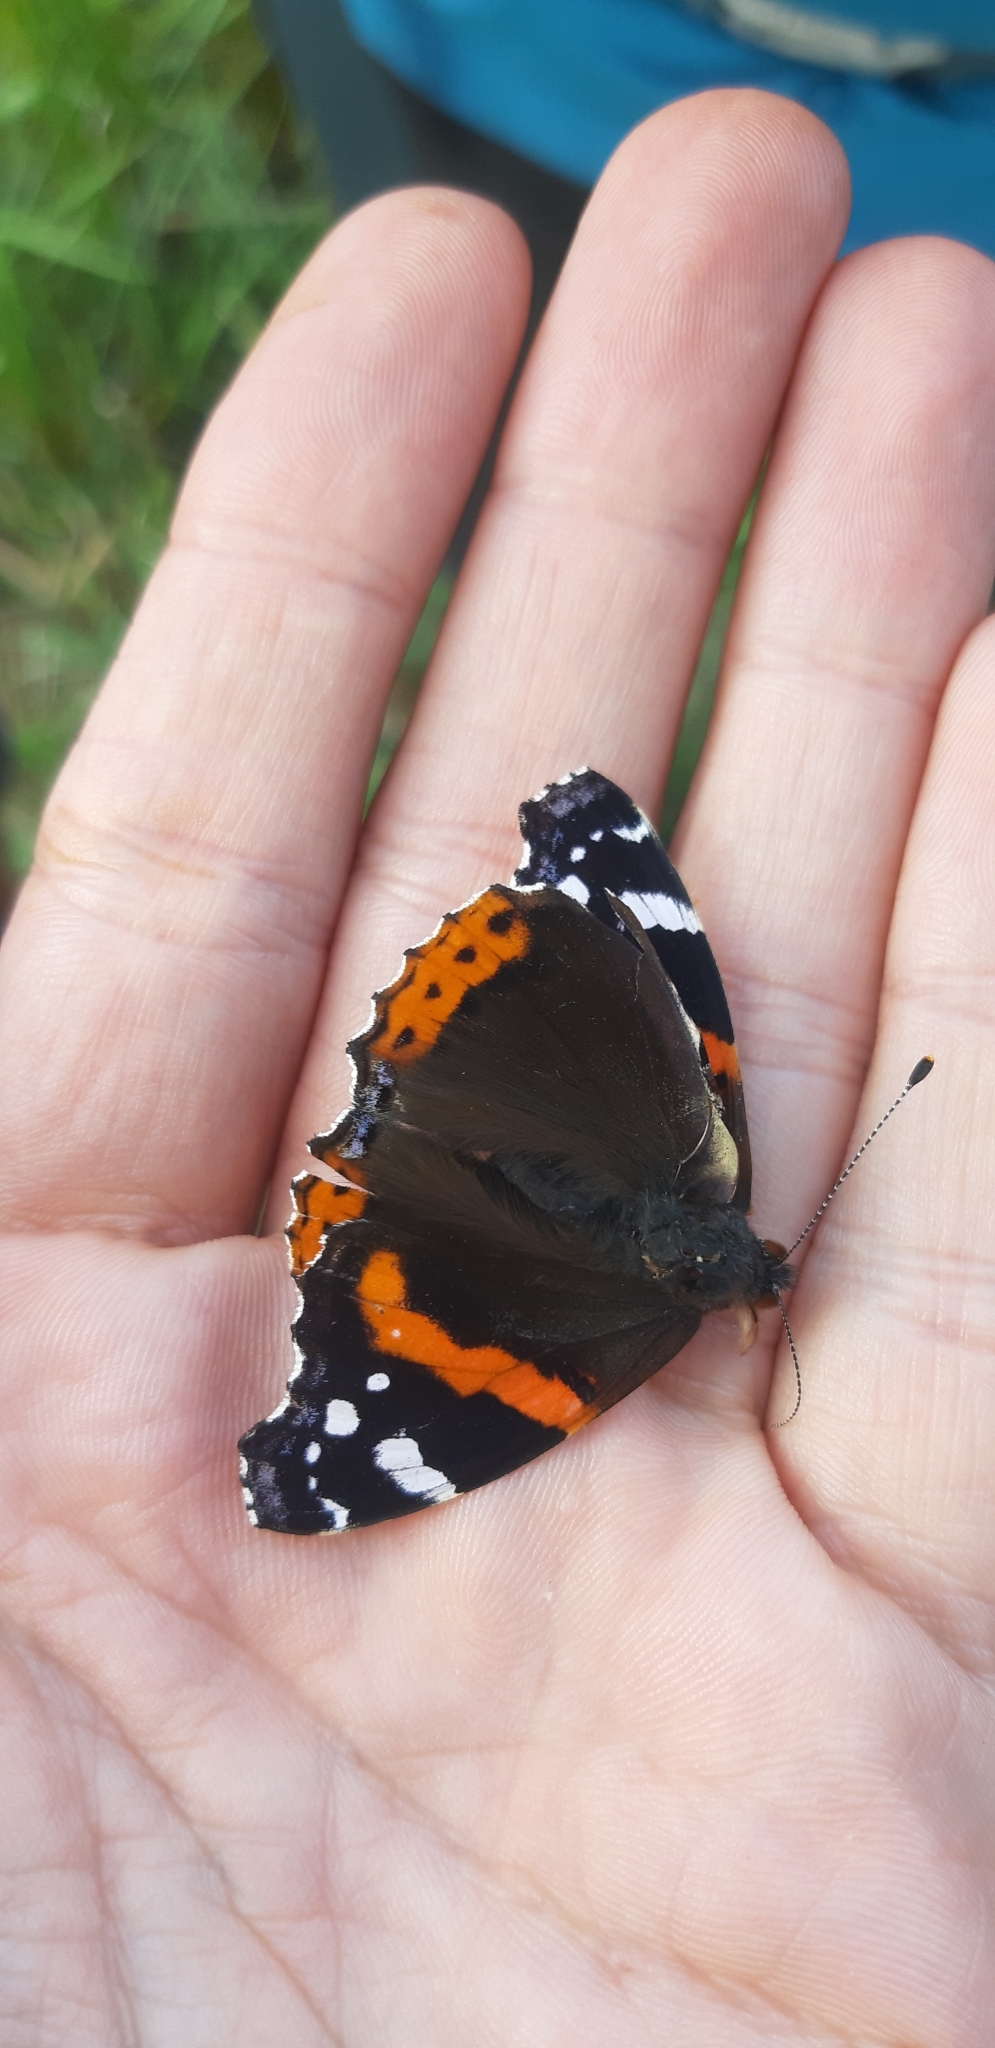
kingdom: Animalia
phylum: Arthropoda
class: Insecta
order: Lepidoptera
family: Nymphalidae
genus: Vanessa
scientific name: Vanessa atalanta
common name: Red admiral
